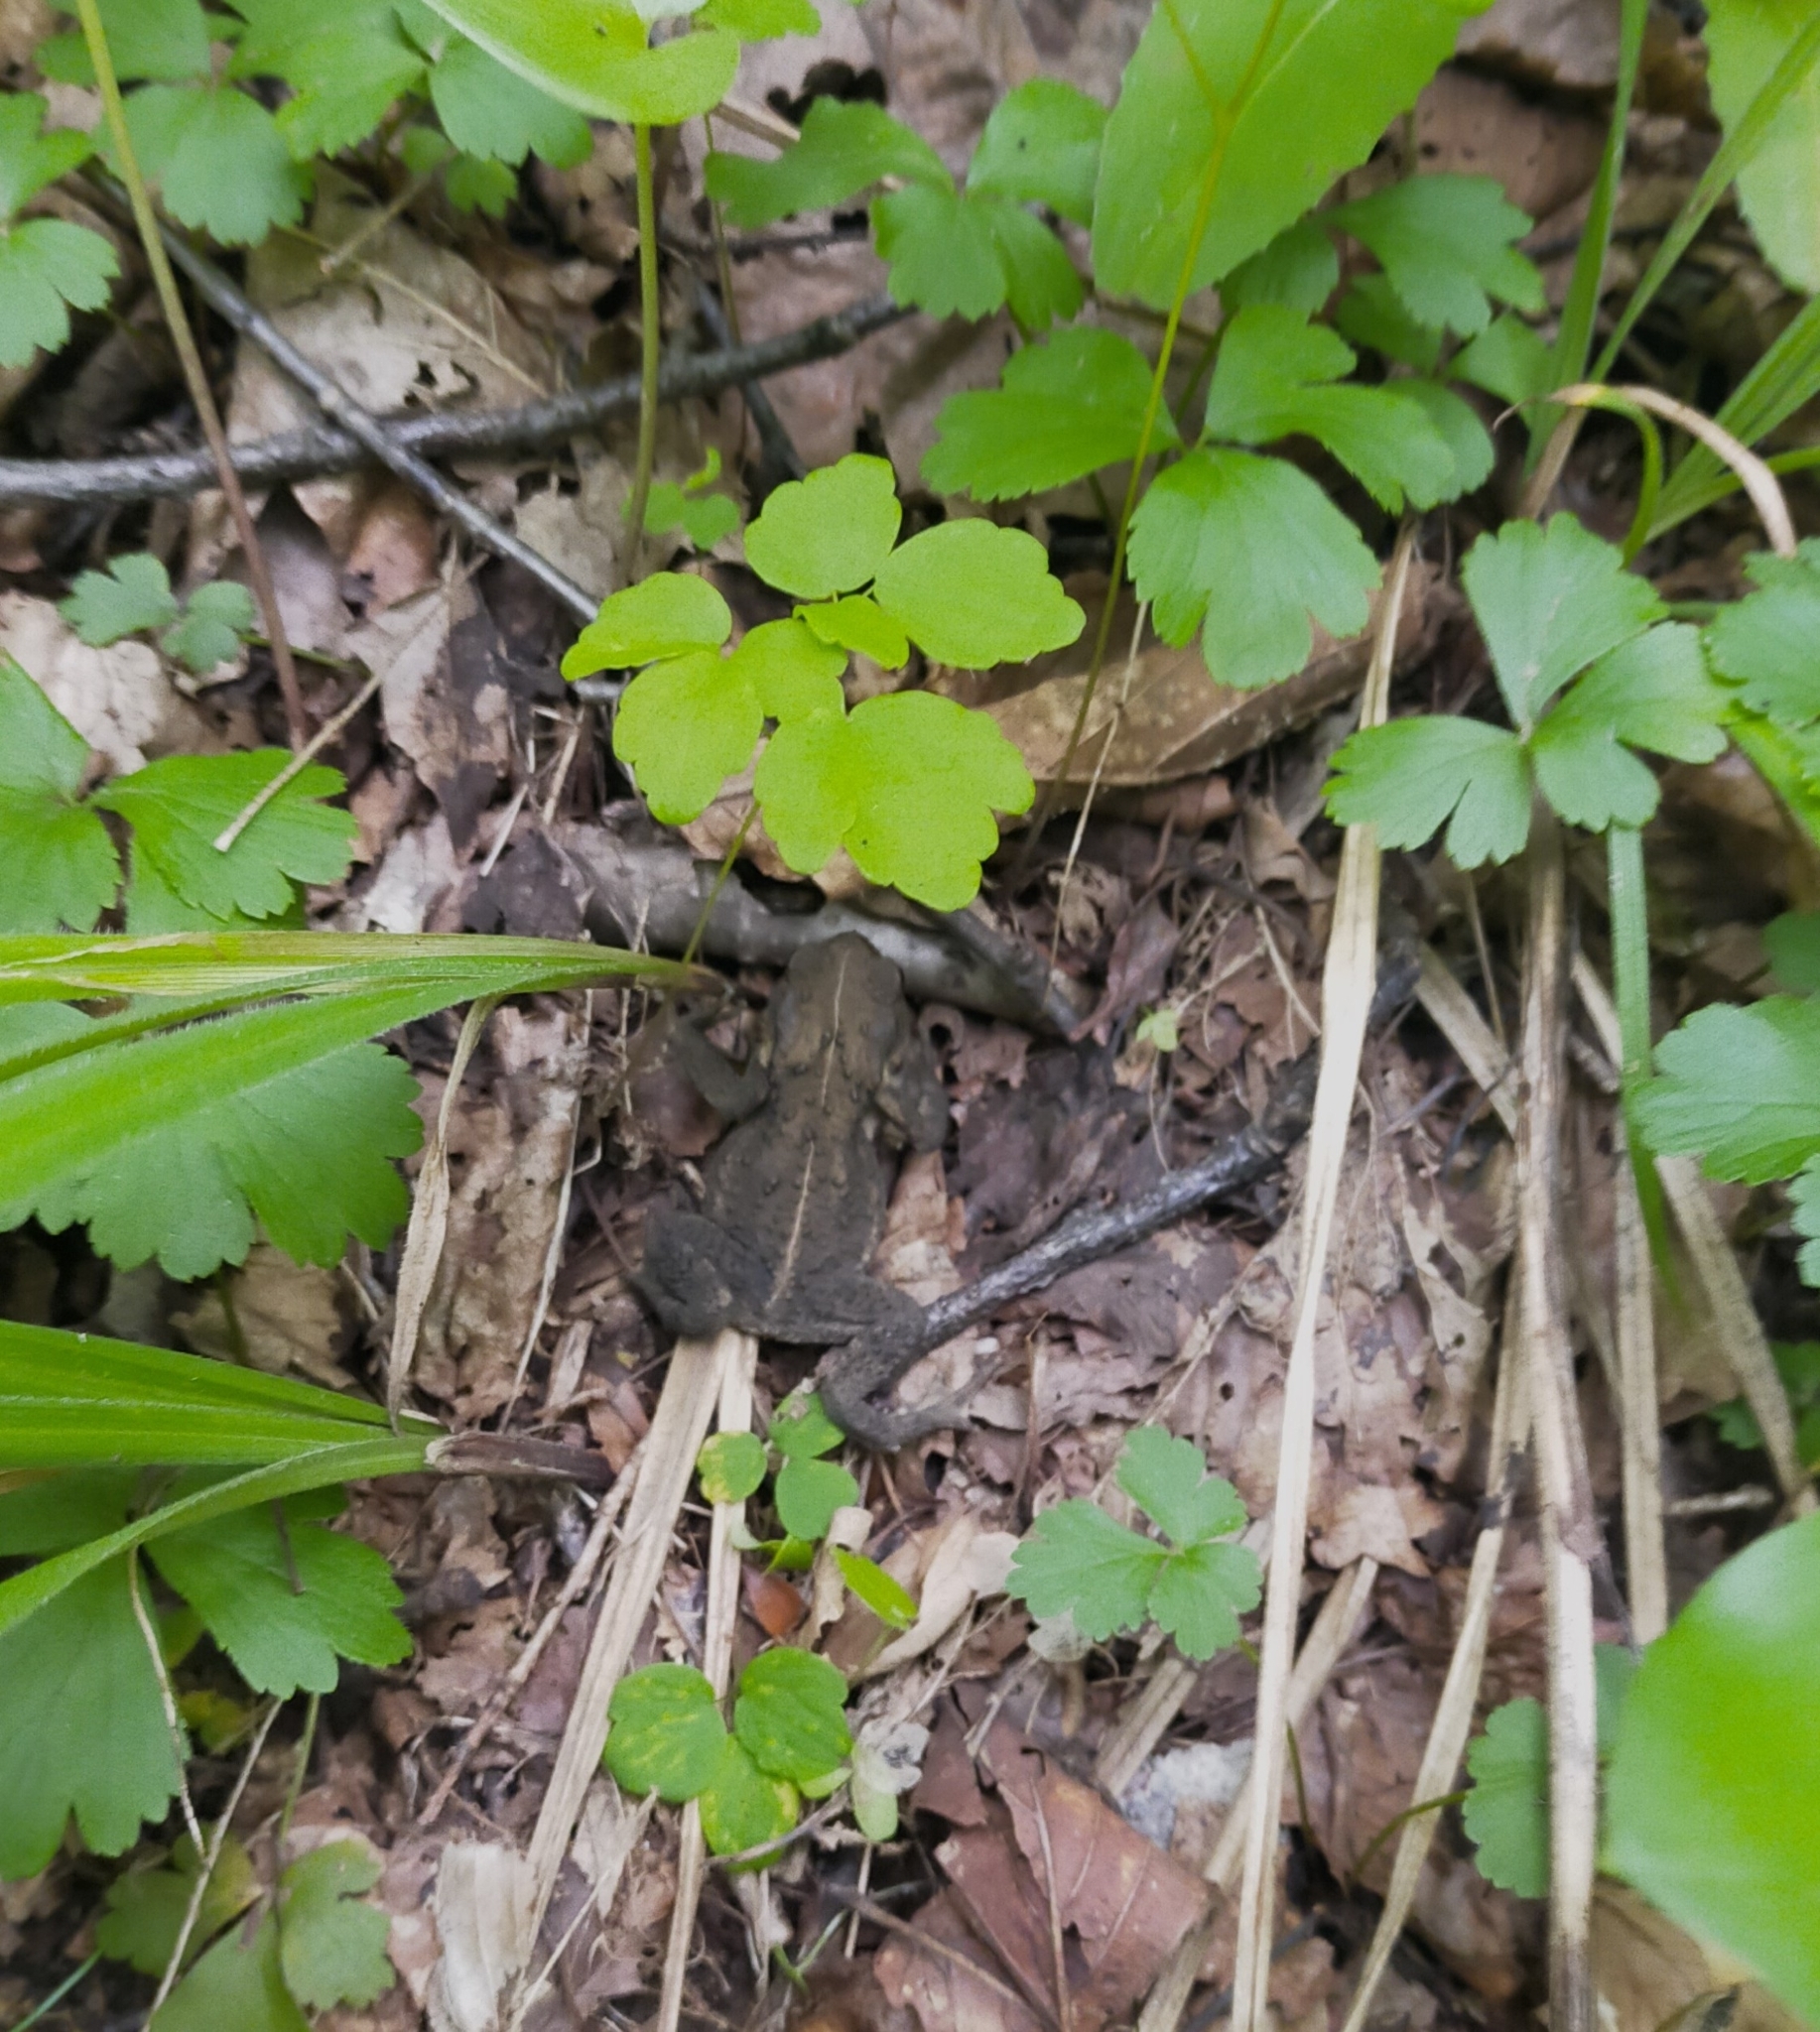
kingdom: Animalia
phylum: Chordata
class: Amphibia
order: Anura
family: Bufonidae
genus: Bufo
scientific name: Bufo gargarizans
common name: Asiatic toad
